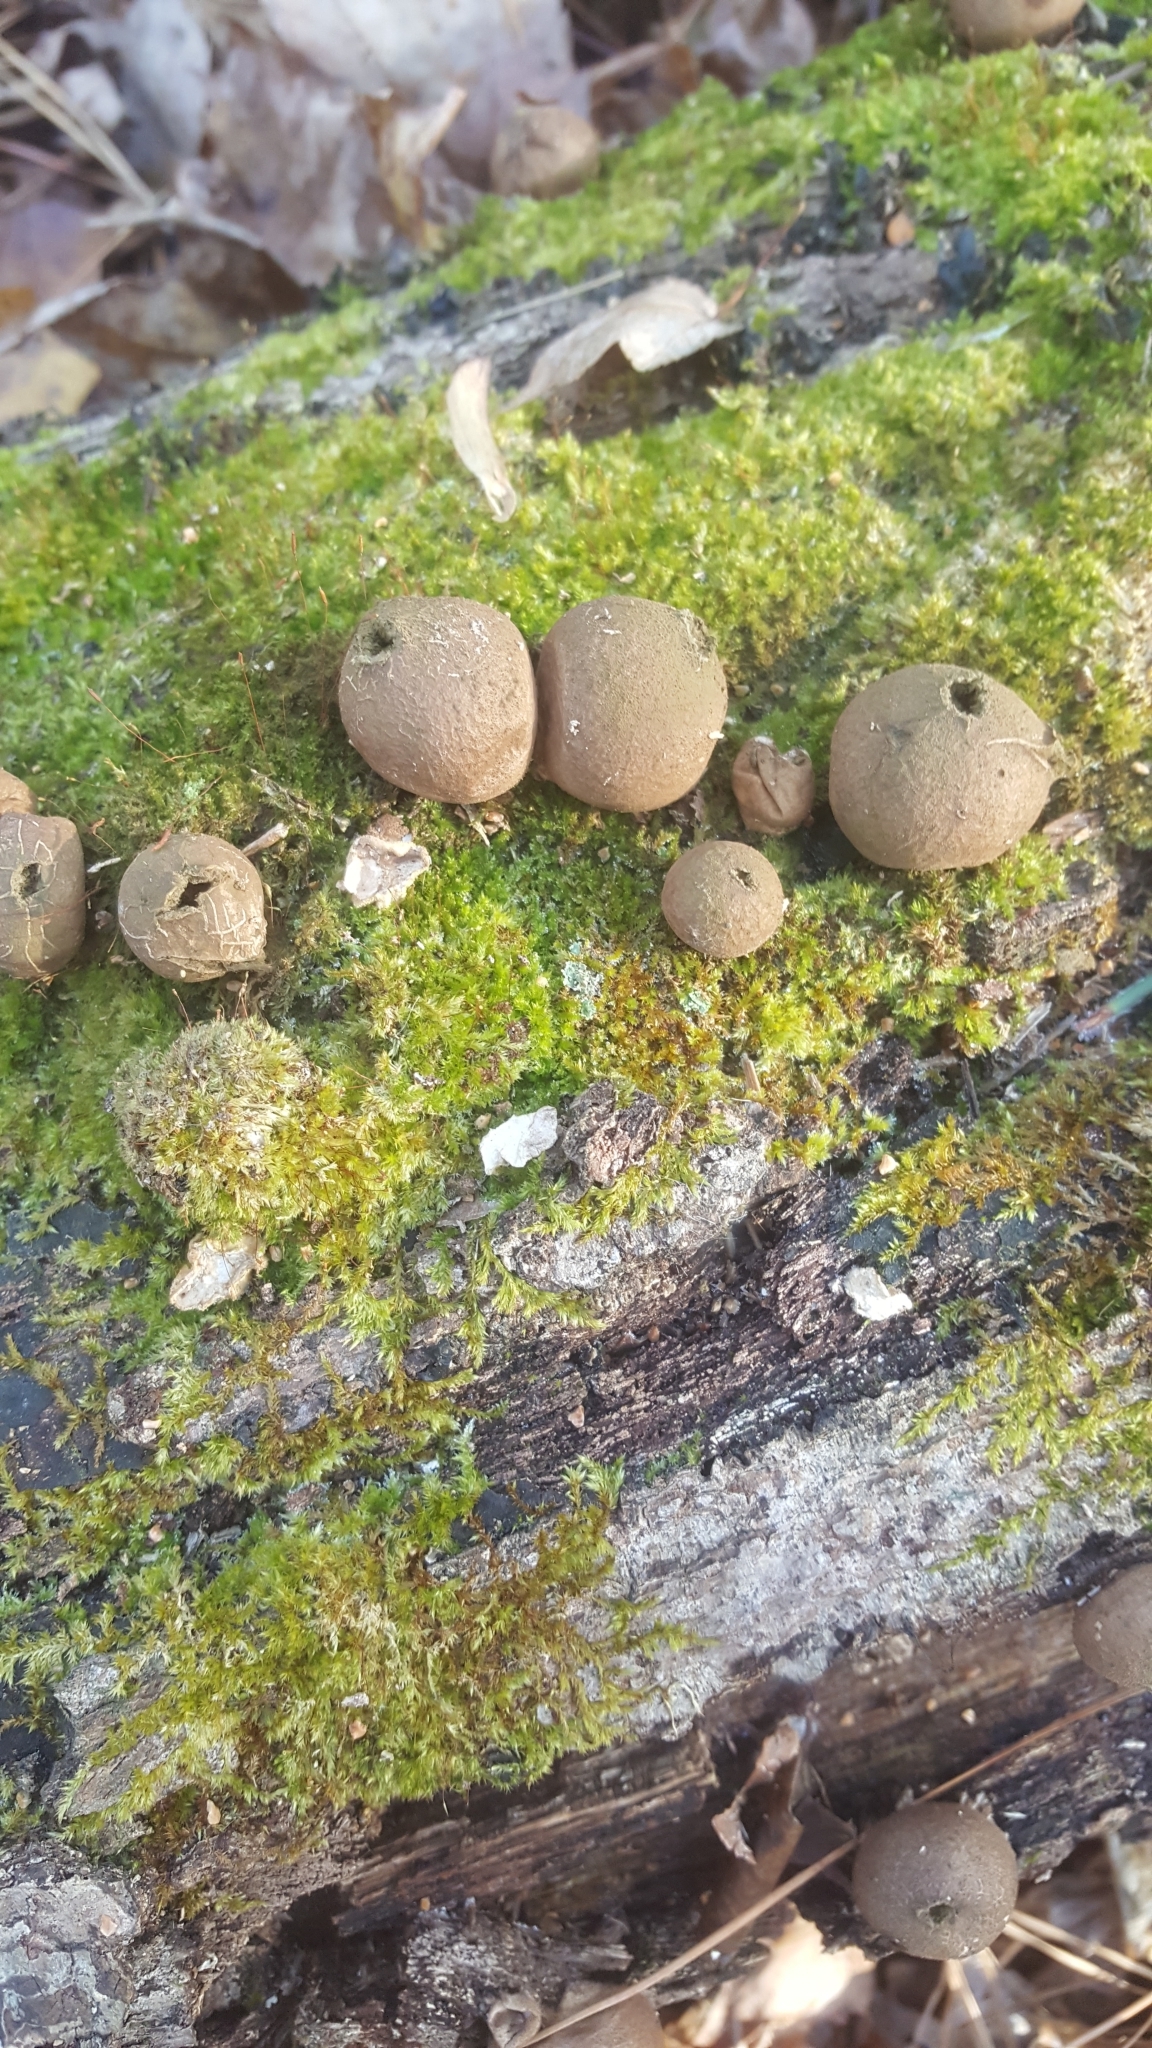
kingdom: Fungi
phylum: Basidiomycota
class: Agaricomycetes
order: Agaricales
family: Lycoperdaceae
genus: Apioperdon
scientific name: Apioperdon pyriforme
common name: Pear-shaped puffball
